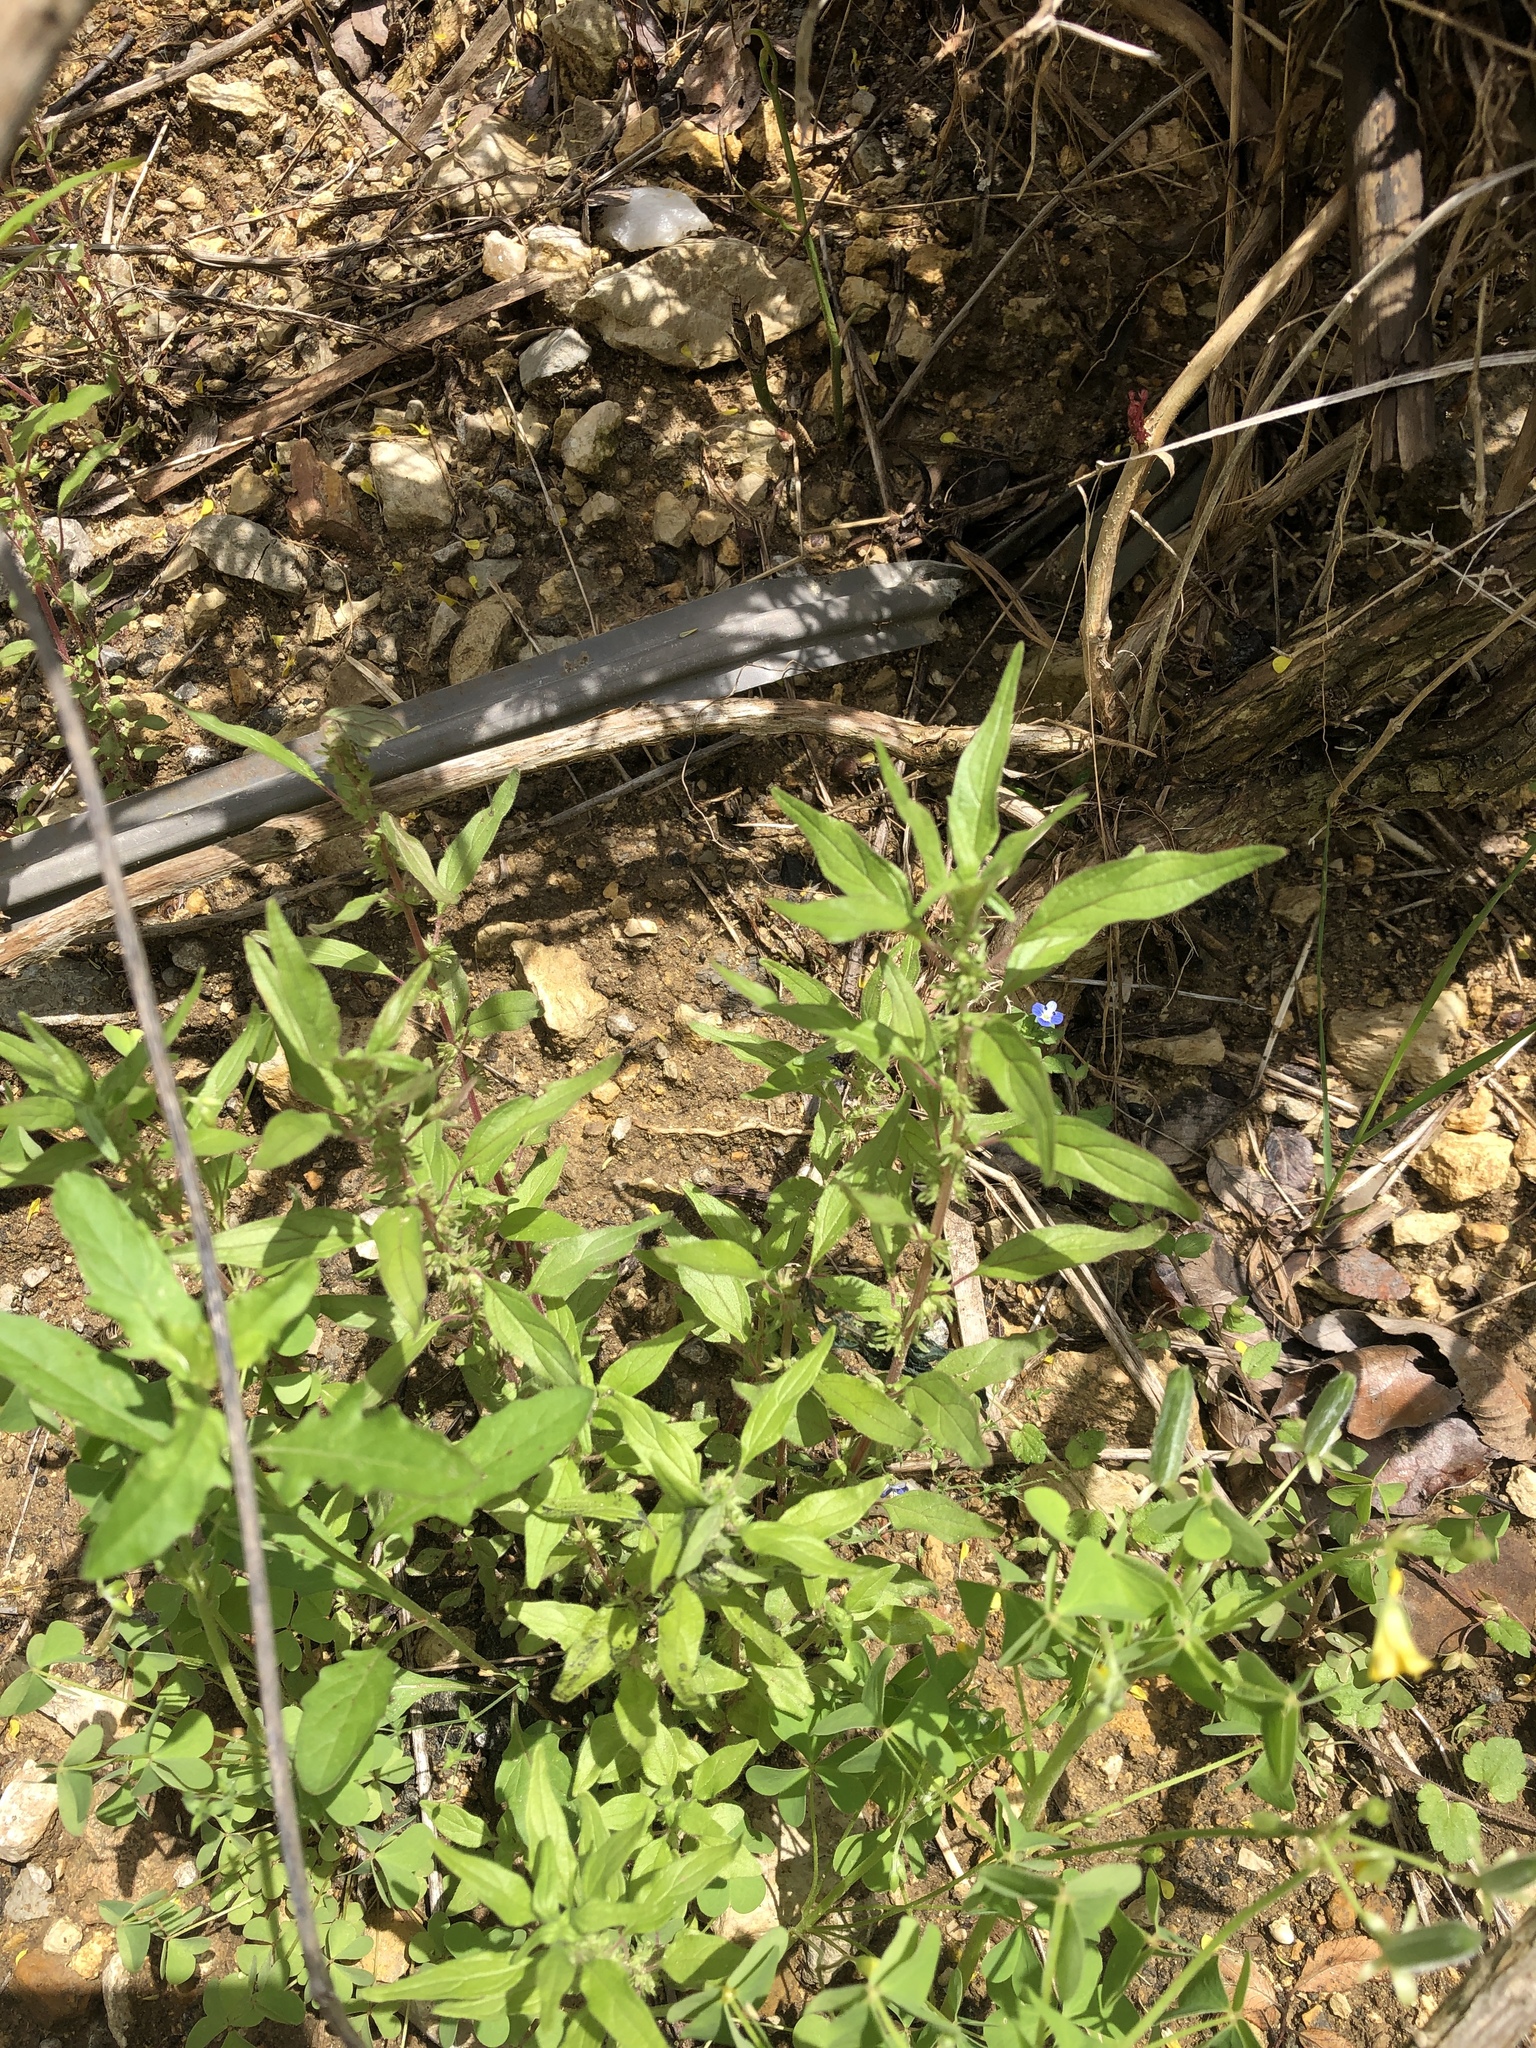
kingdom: Plantae
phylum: Tracheophyta
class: Magnoliopsida
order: Rosales
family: Urticaceae
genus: Parietaria
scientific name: Parietaria pensylvanica
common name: Pennsylvania pellitory
